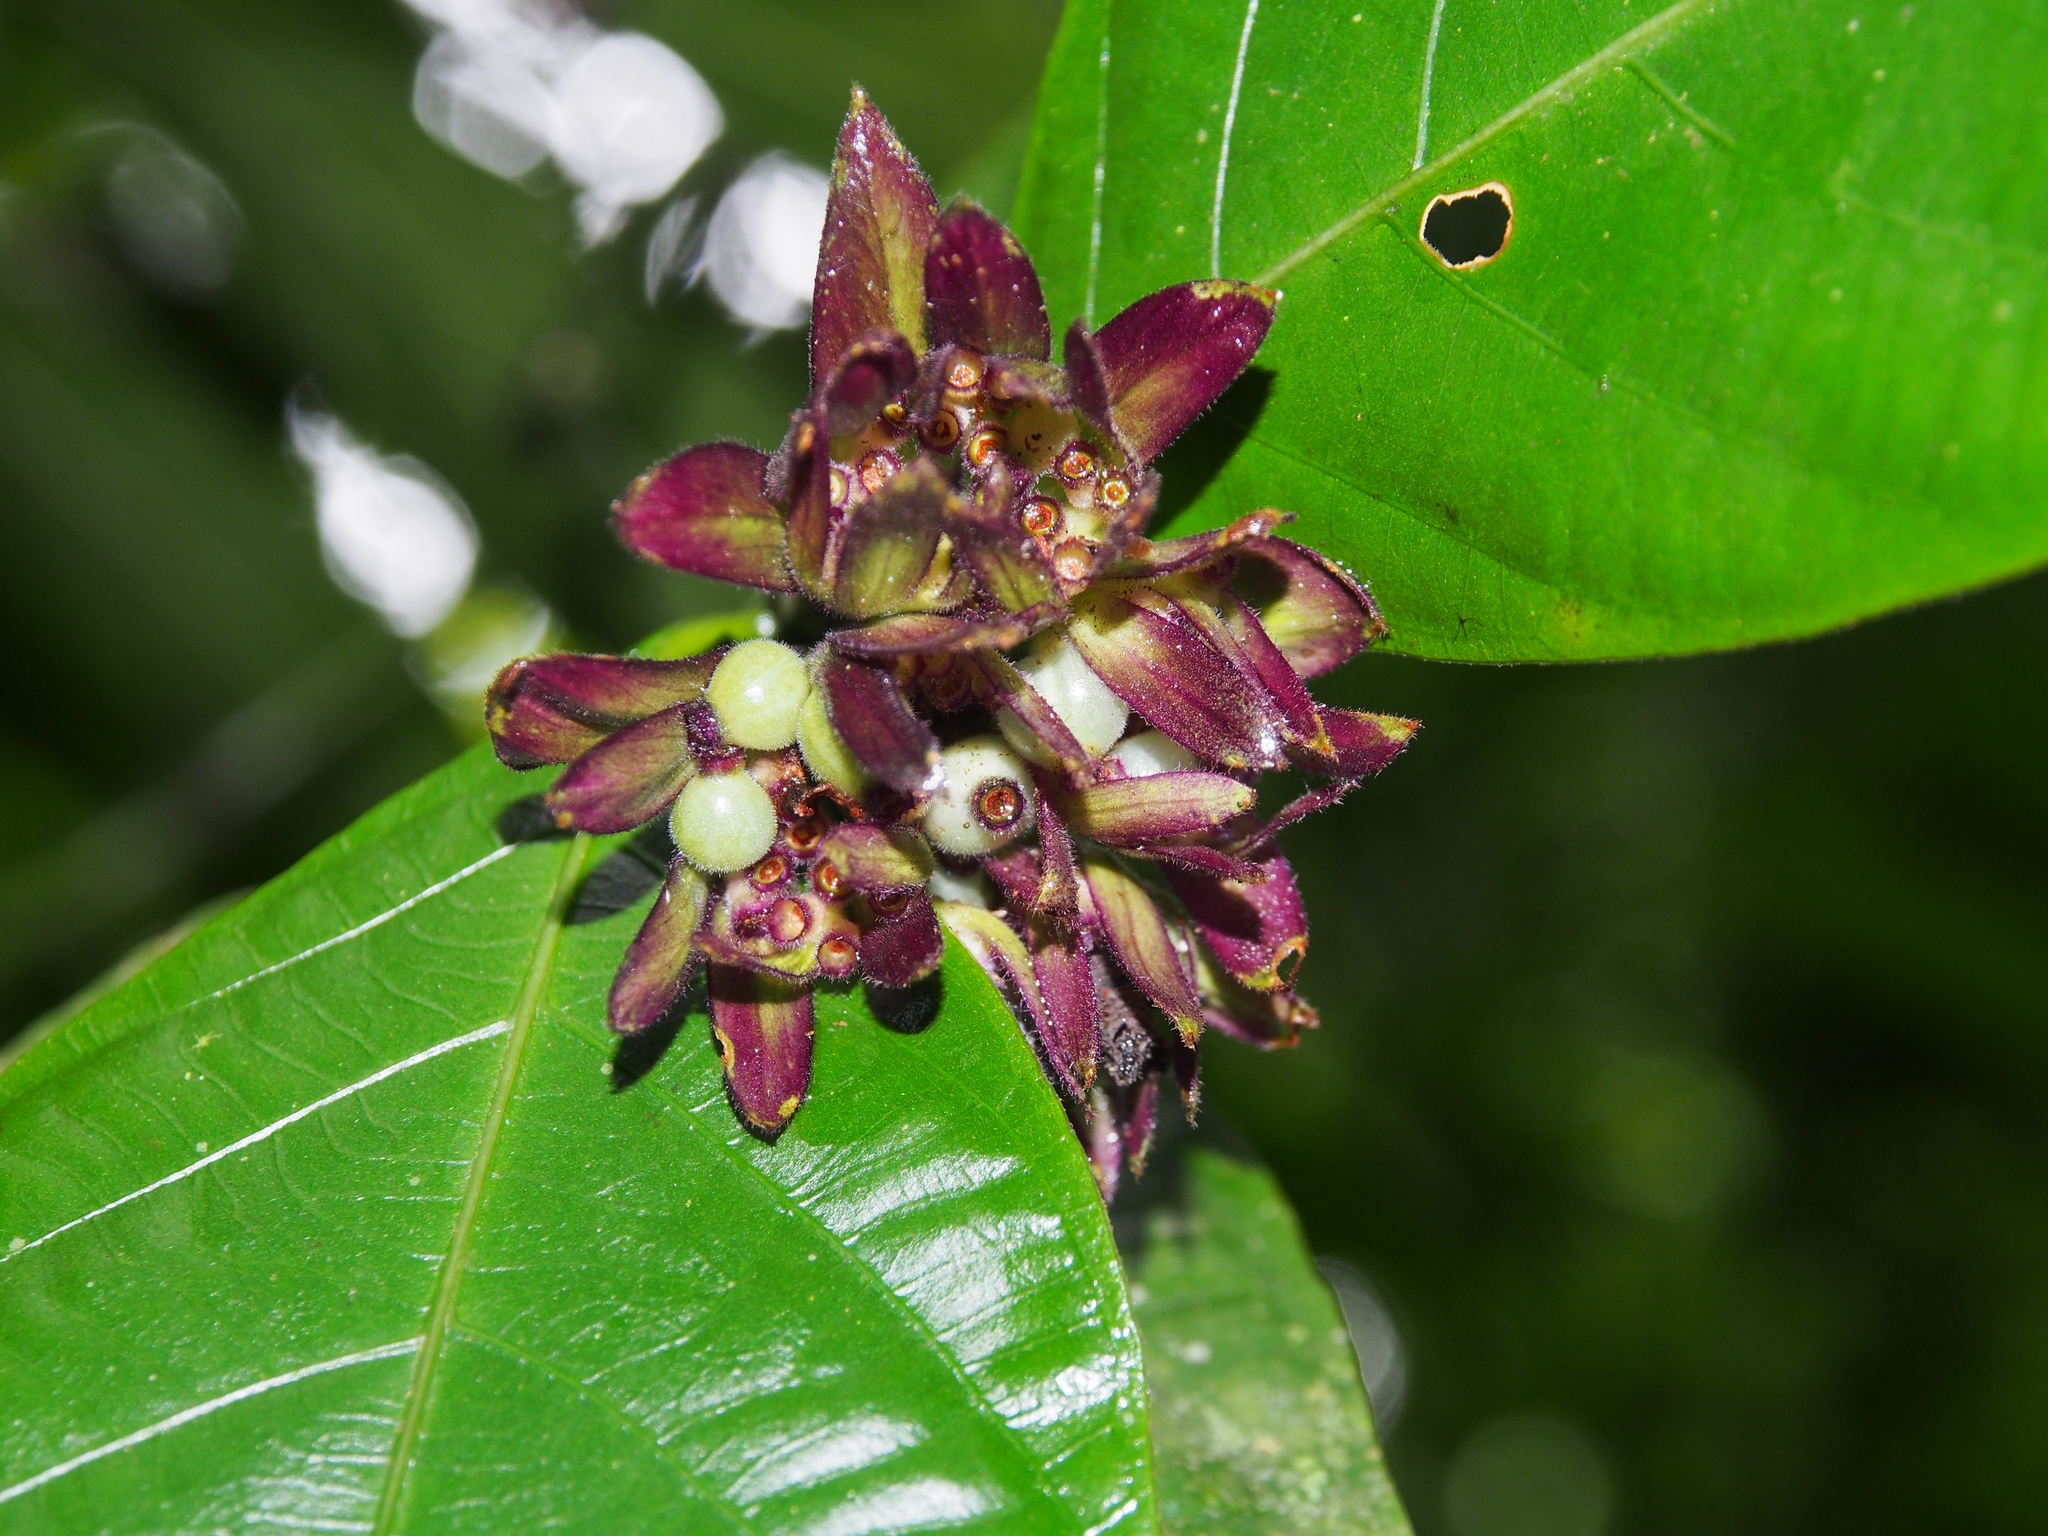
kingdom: Plantae
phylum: Tracheophyta
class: Magnoliopsida
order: Gentianales
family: Rubiaceae
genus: Palicourea
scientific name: Palicourea suerrensis
